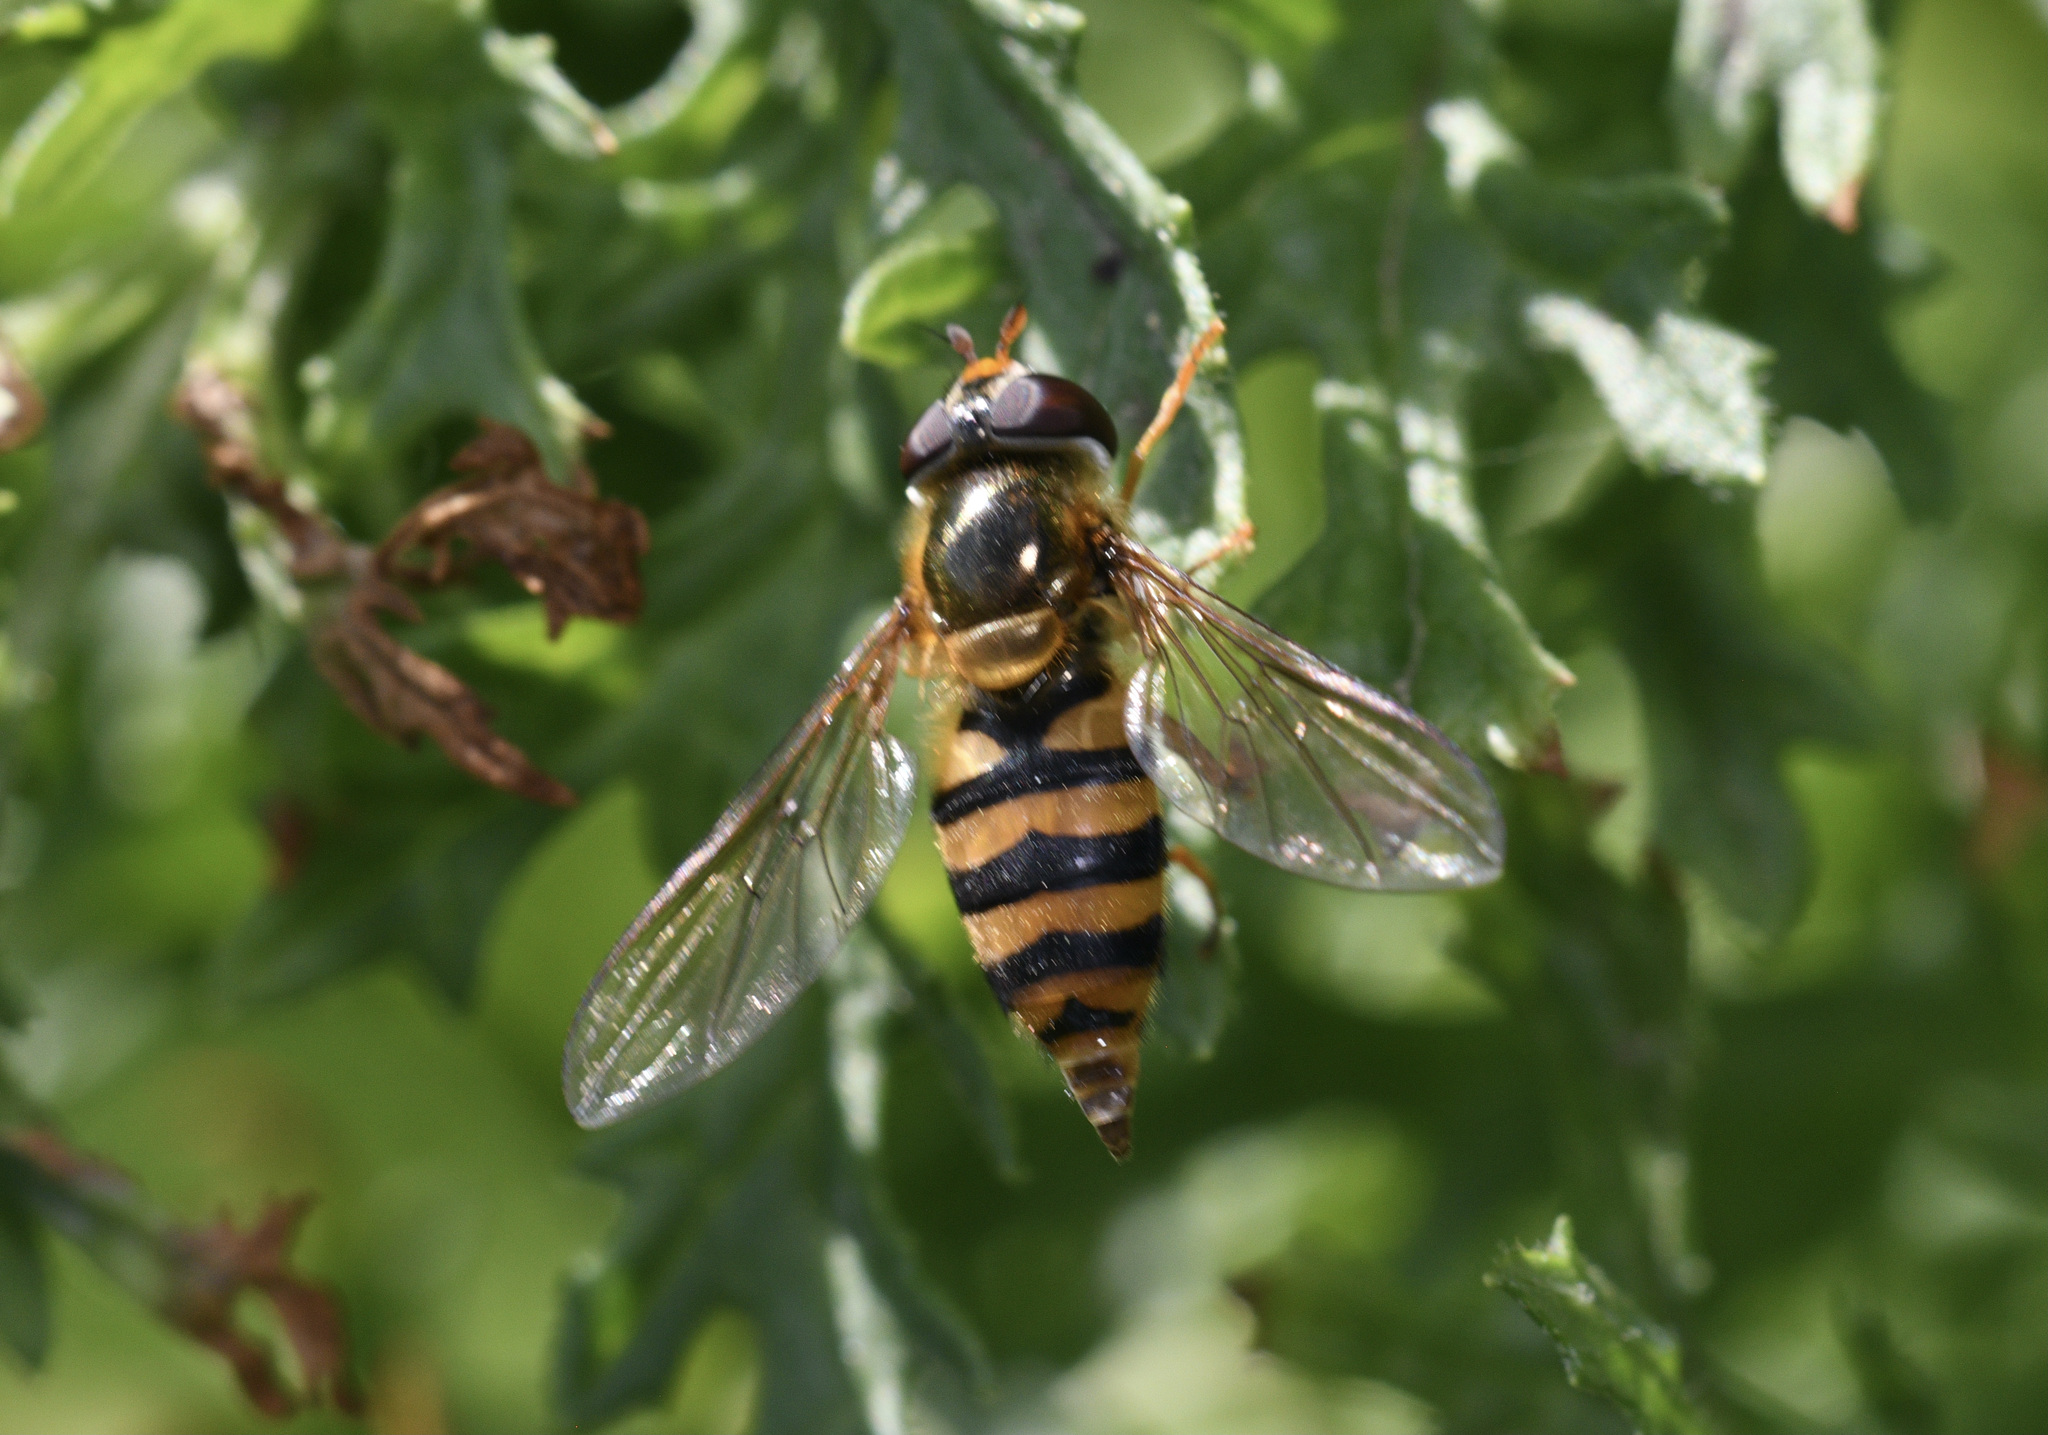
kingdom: Animalia
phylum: Arthropoda
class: Insecta
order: Diptera
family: Syrphidae
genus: Epistrophe
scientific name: Epistrophe nitidicollis
